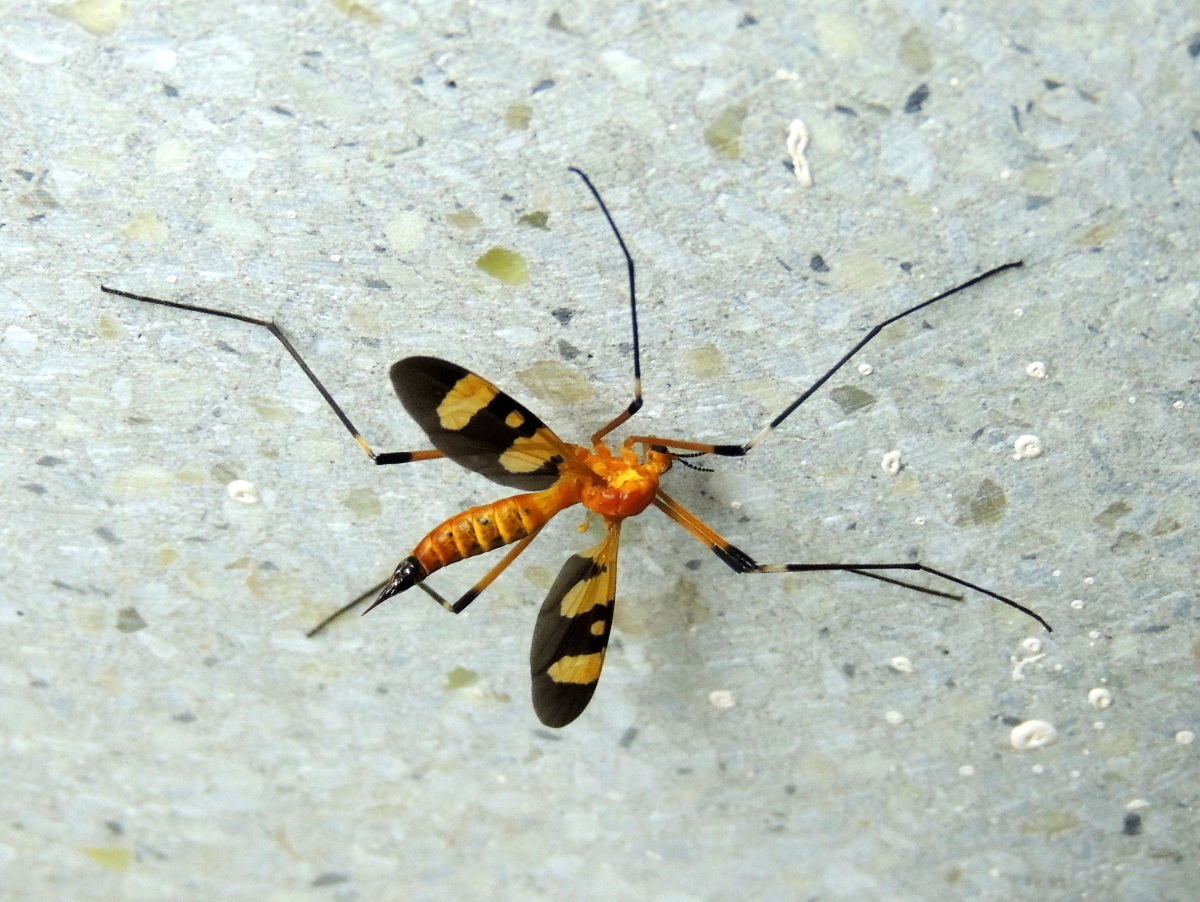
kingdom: Animalia
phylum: Arthropoda
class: Insecta
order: Diptera
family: Tipulidae
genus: Pselliophora
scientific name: Pselliophora laeta
